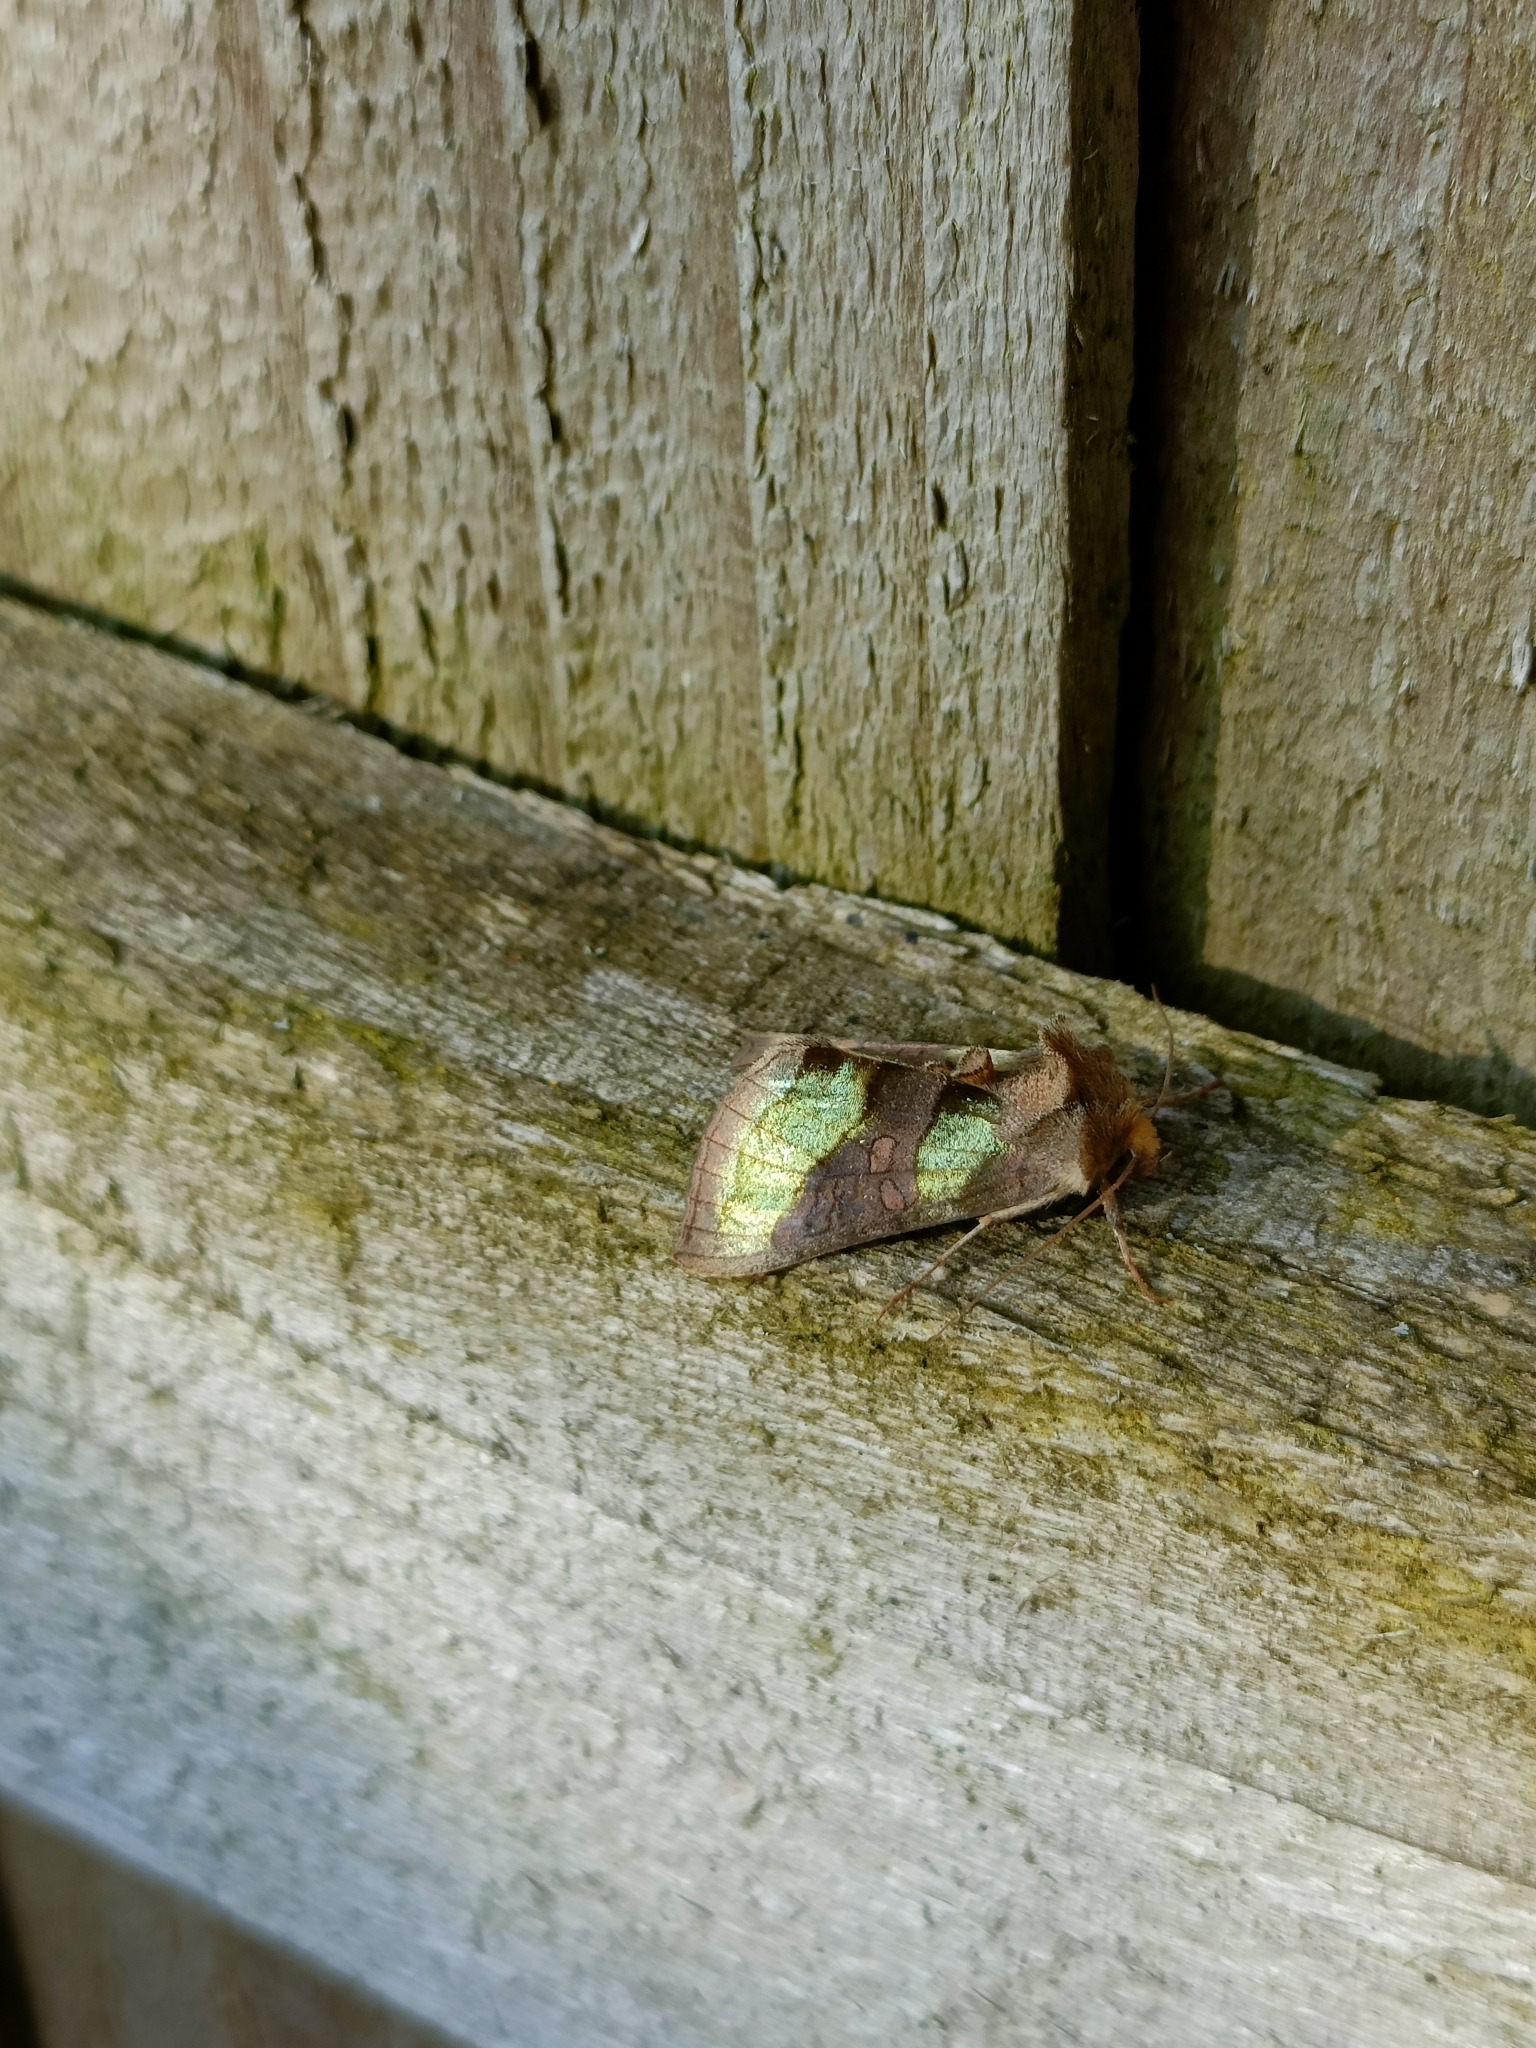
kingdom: Animalia
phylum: Arthropoda
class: Insecta
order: Lepidoptera
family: Noctuidae
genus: Diachrysia
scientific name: Diachrysia chrysitis
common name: Burnished brass
